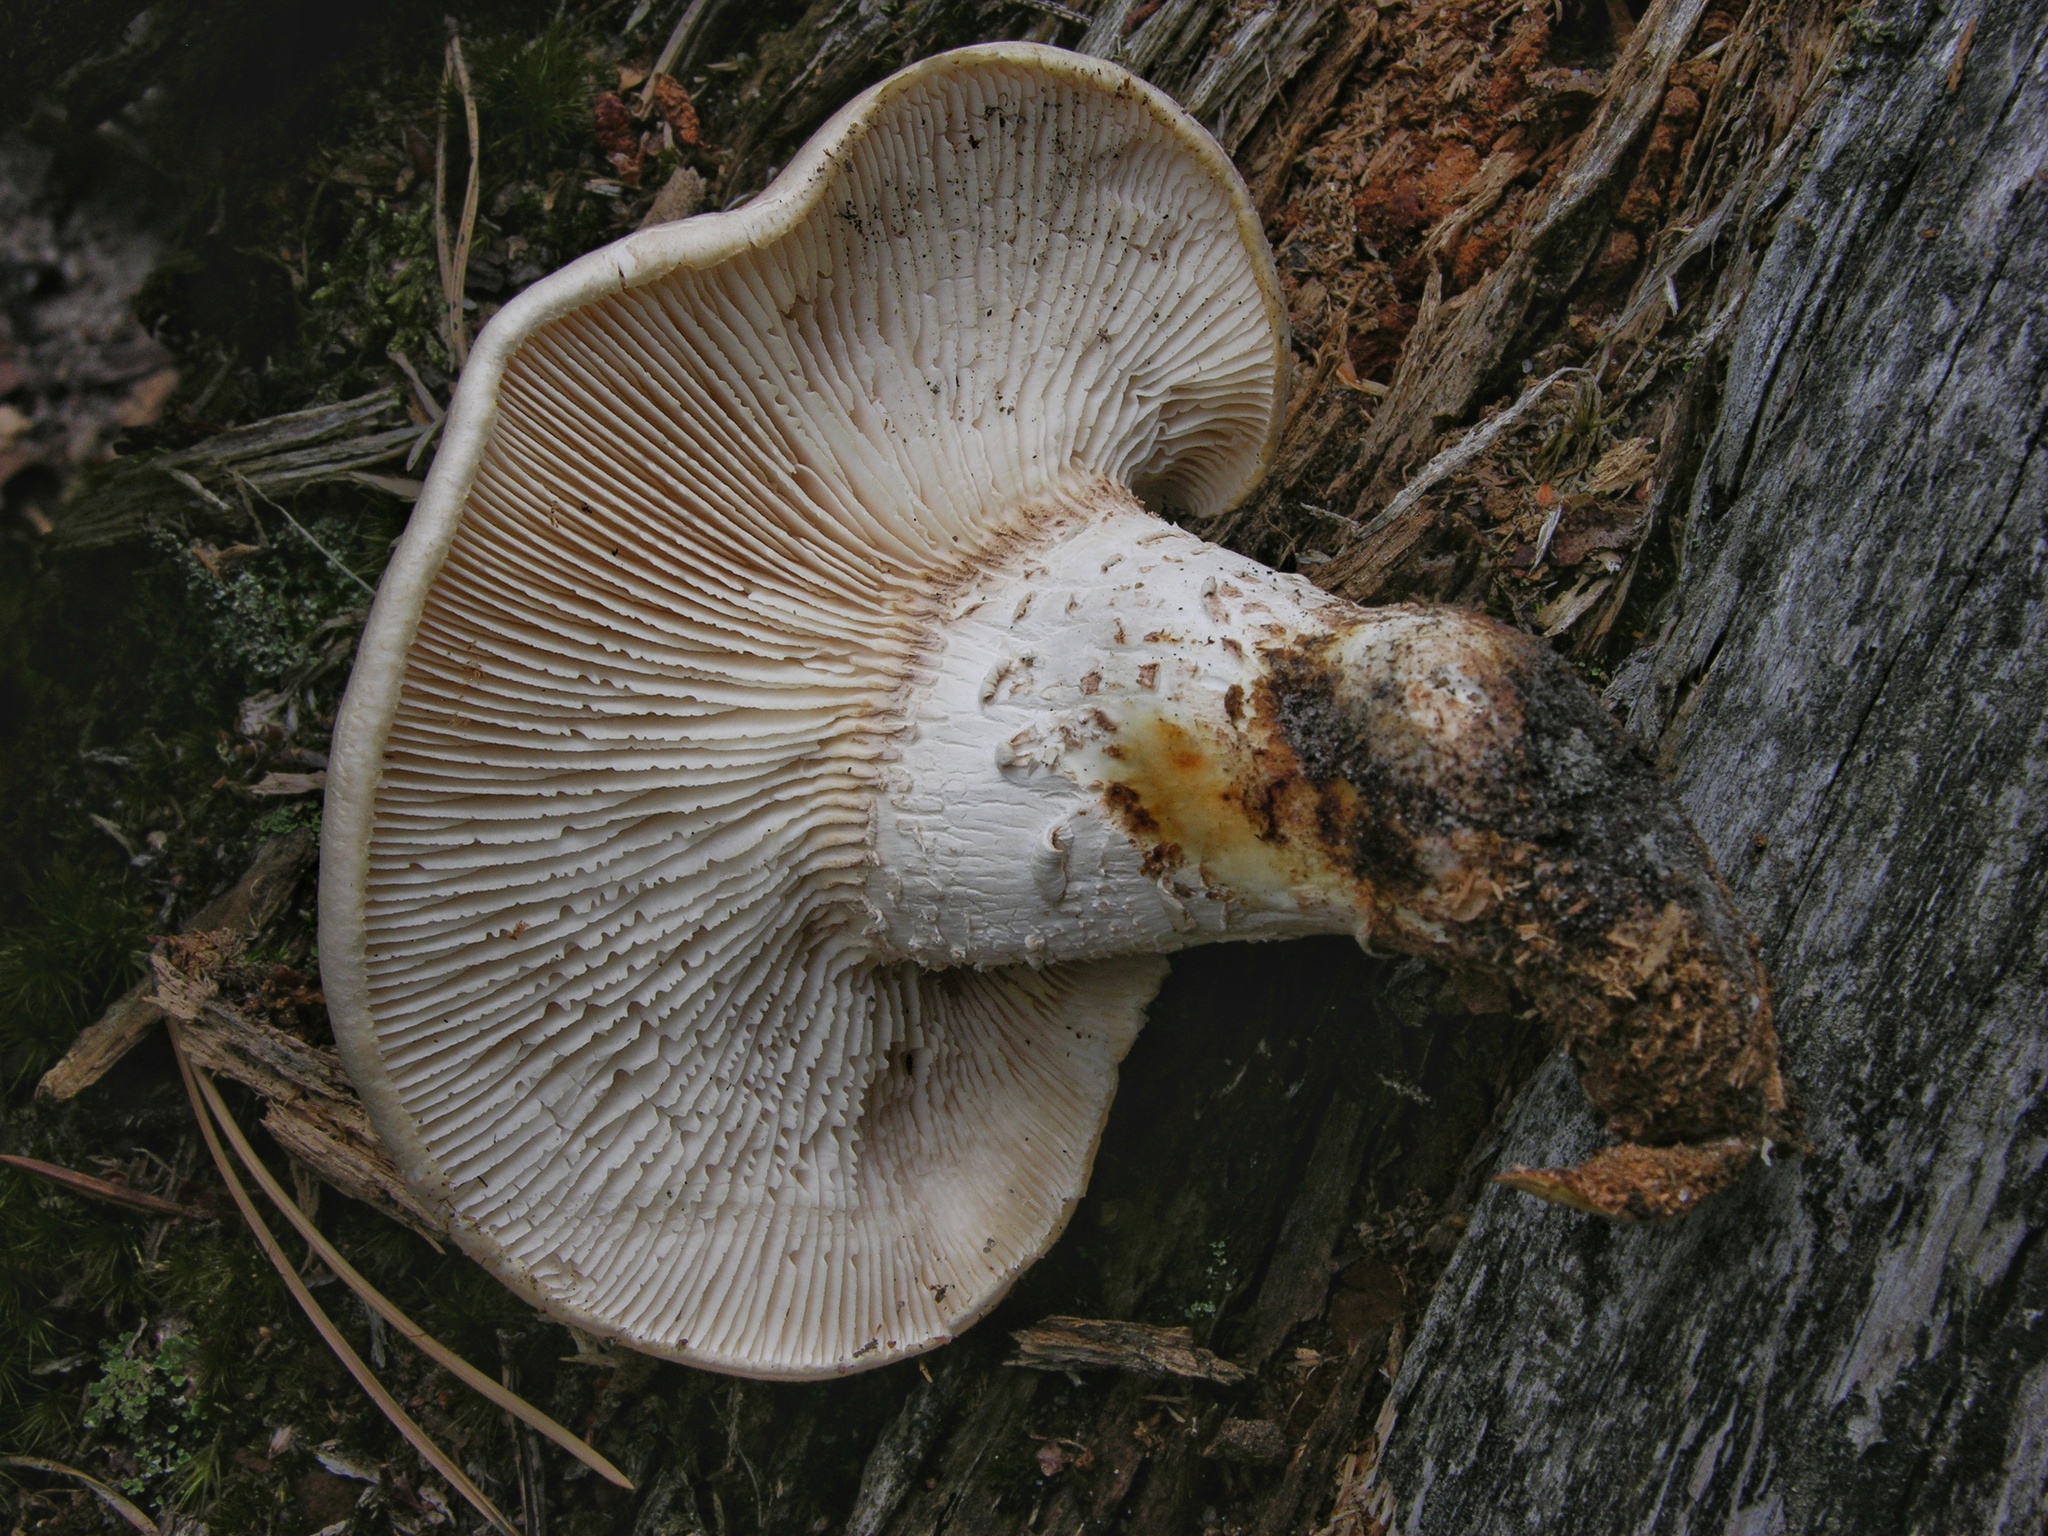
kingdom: Fungi
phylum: Basidiomycota
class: Agaricomycetes
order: Gloeophyllales
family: Gloeophyllaceae
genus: Neolentinus
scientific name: Neolentinus lepideus
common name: Scaly sawgill
